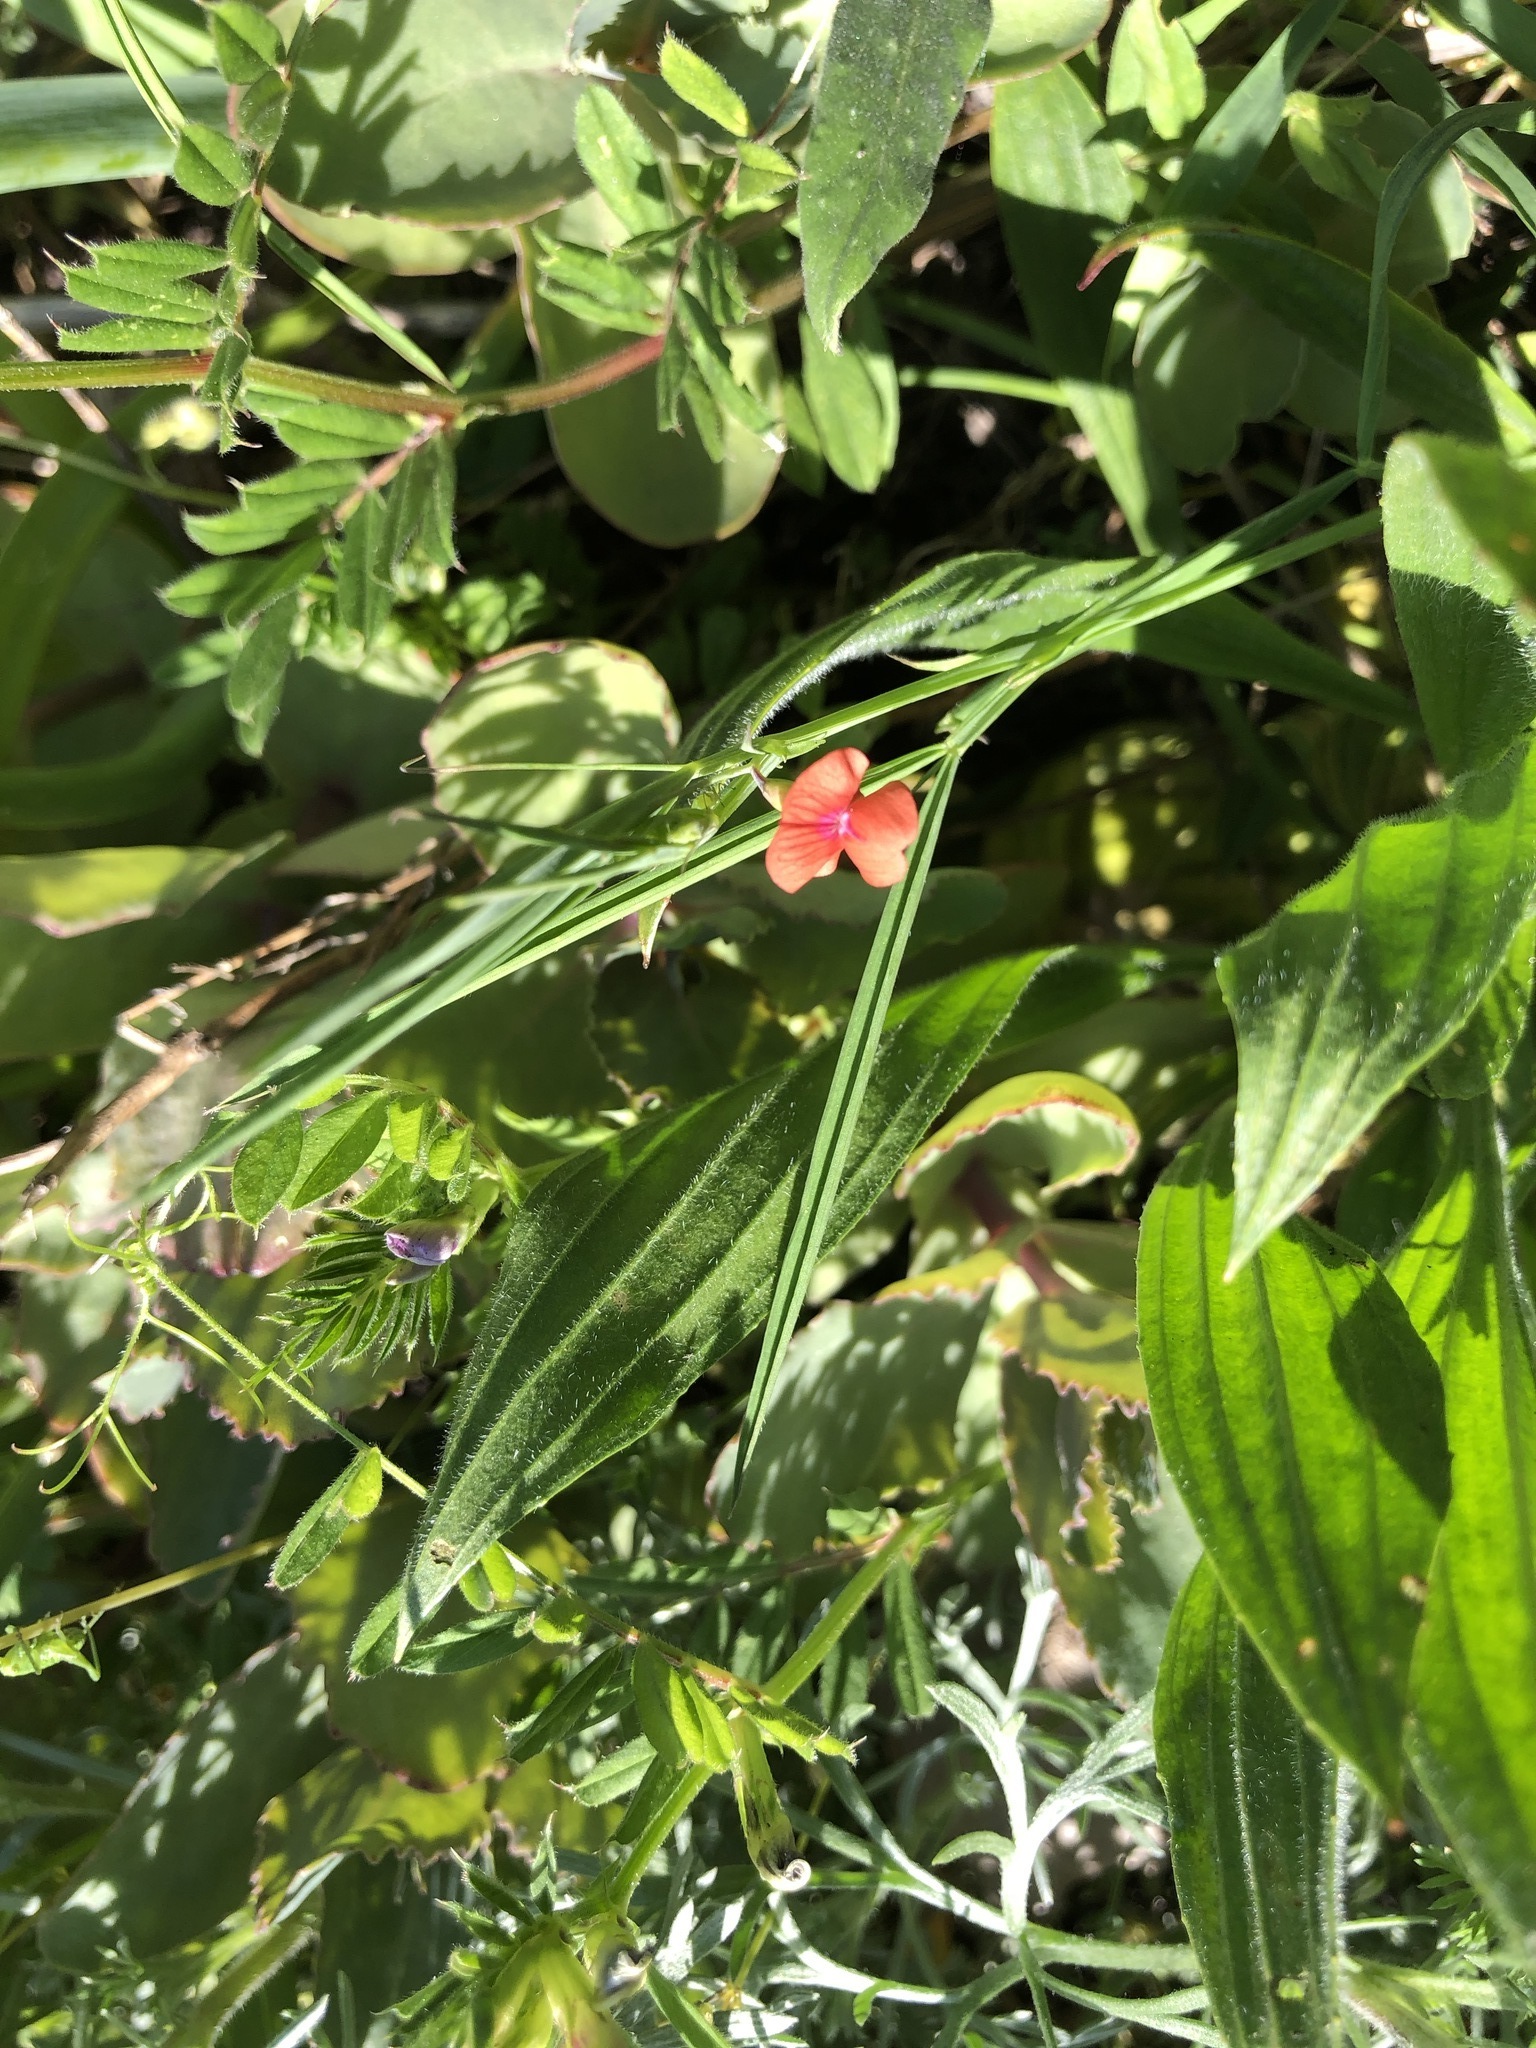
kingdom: Plantae
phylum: Tracheophyta
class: Magnoliopsida
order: Fabales
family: Fabaceae
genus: Lathyrus
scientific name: Lathyrus sphaericus
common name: Grass pea
